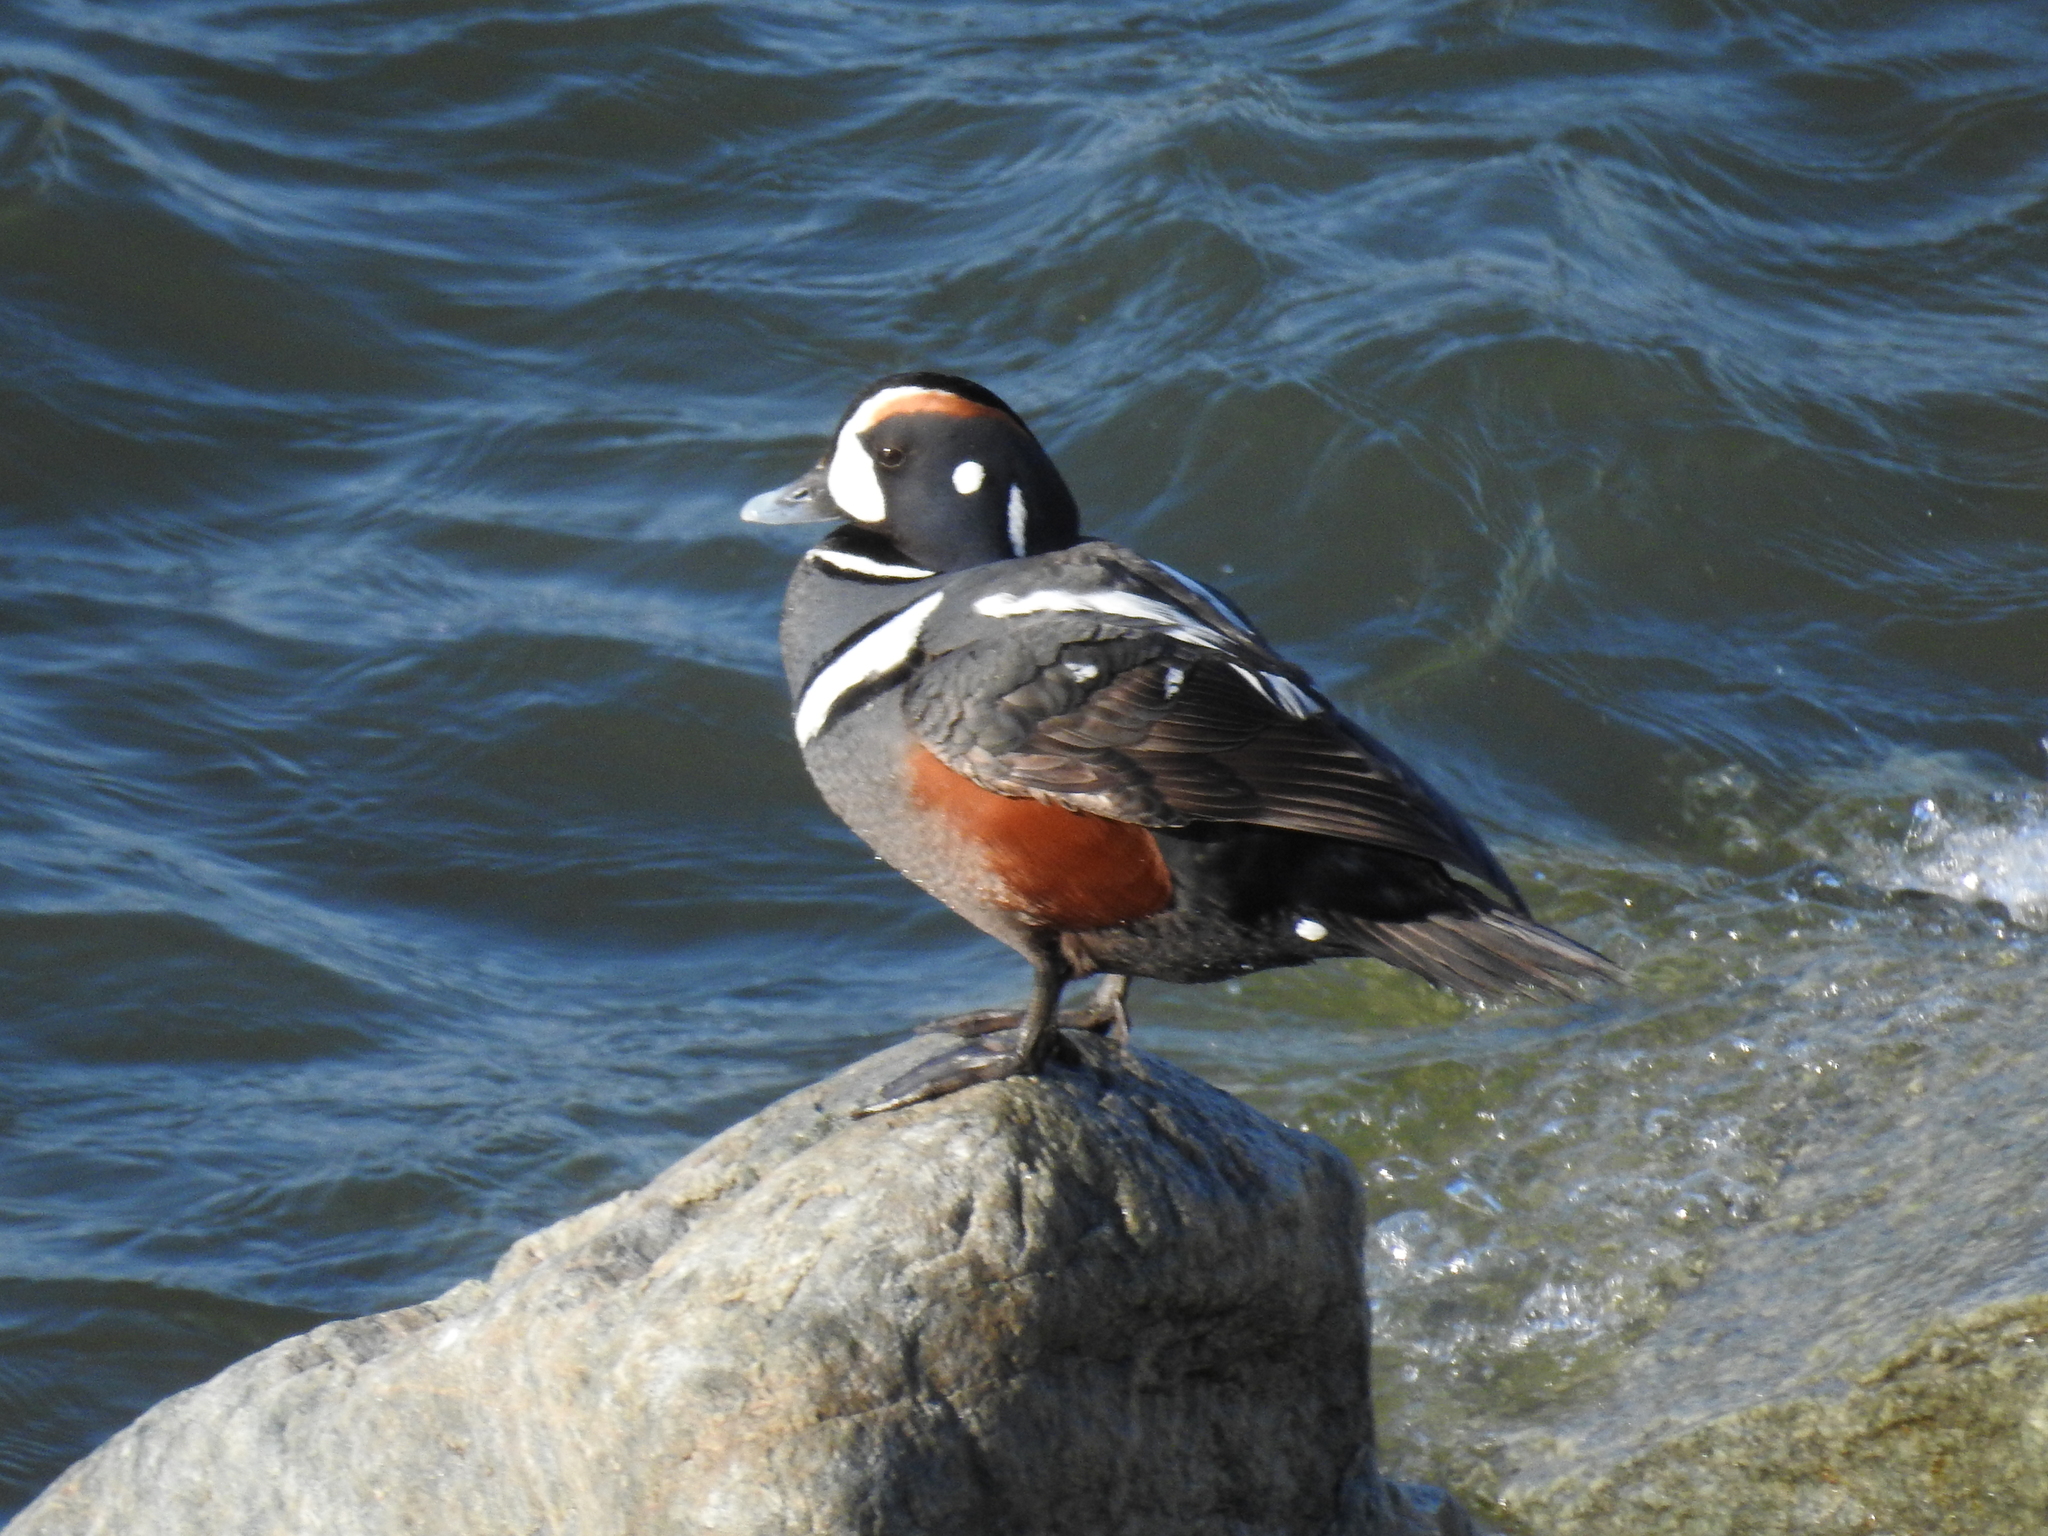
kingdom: Animalia
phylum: Chordata
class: Aves
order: Anseriformes
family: Anatidae
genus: Histrionicus
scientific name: Histrionicus histrionicus
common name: Harlequin duck
